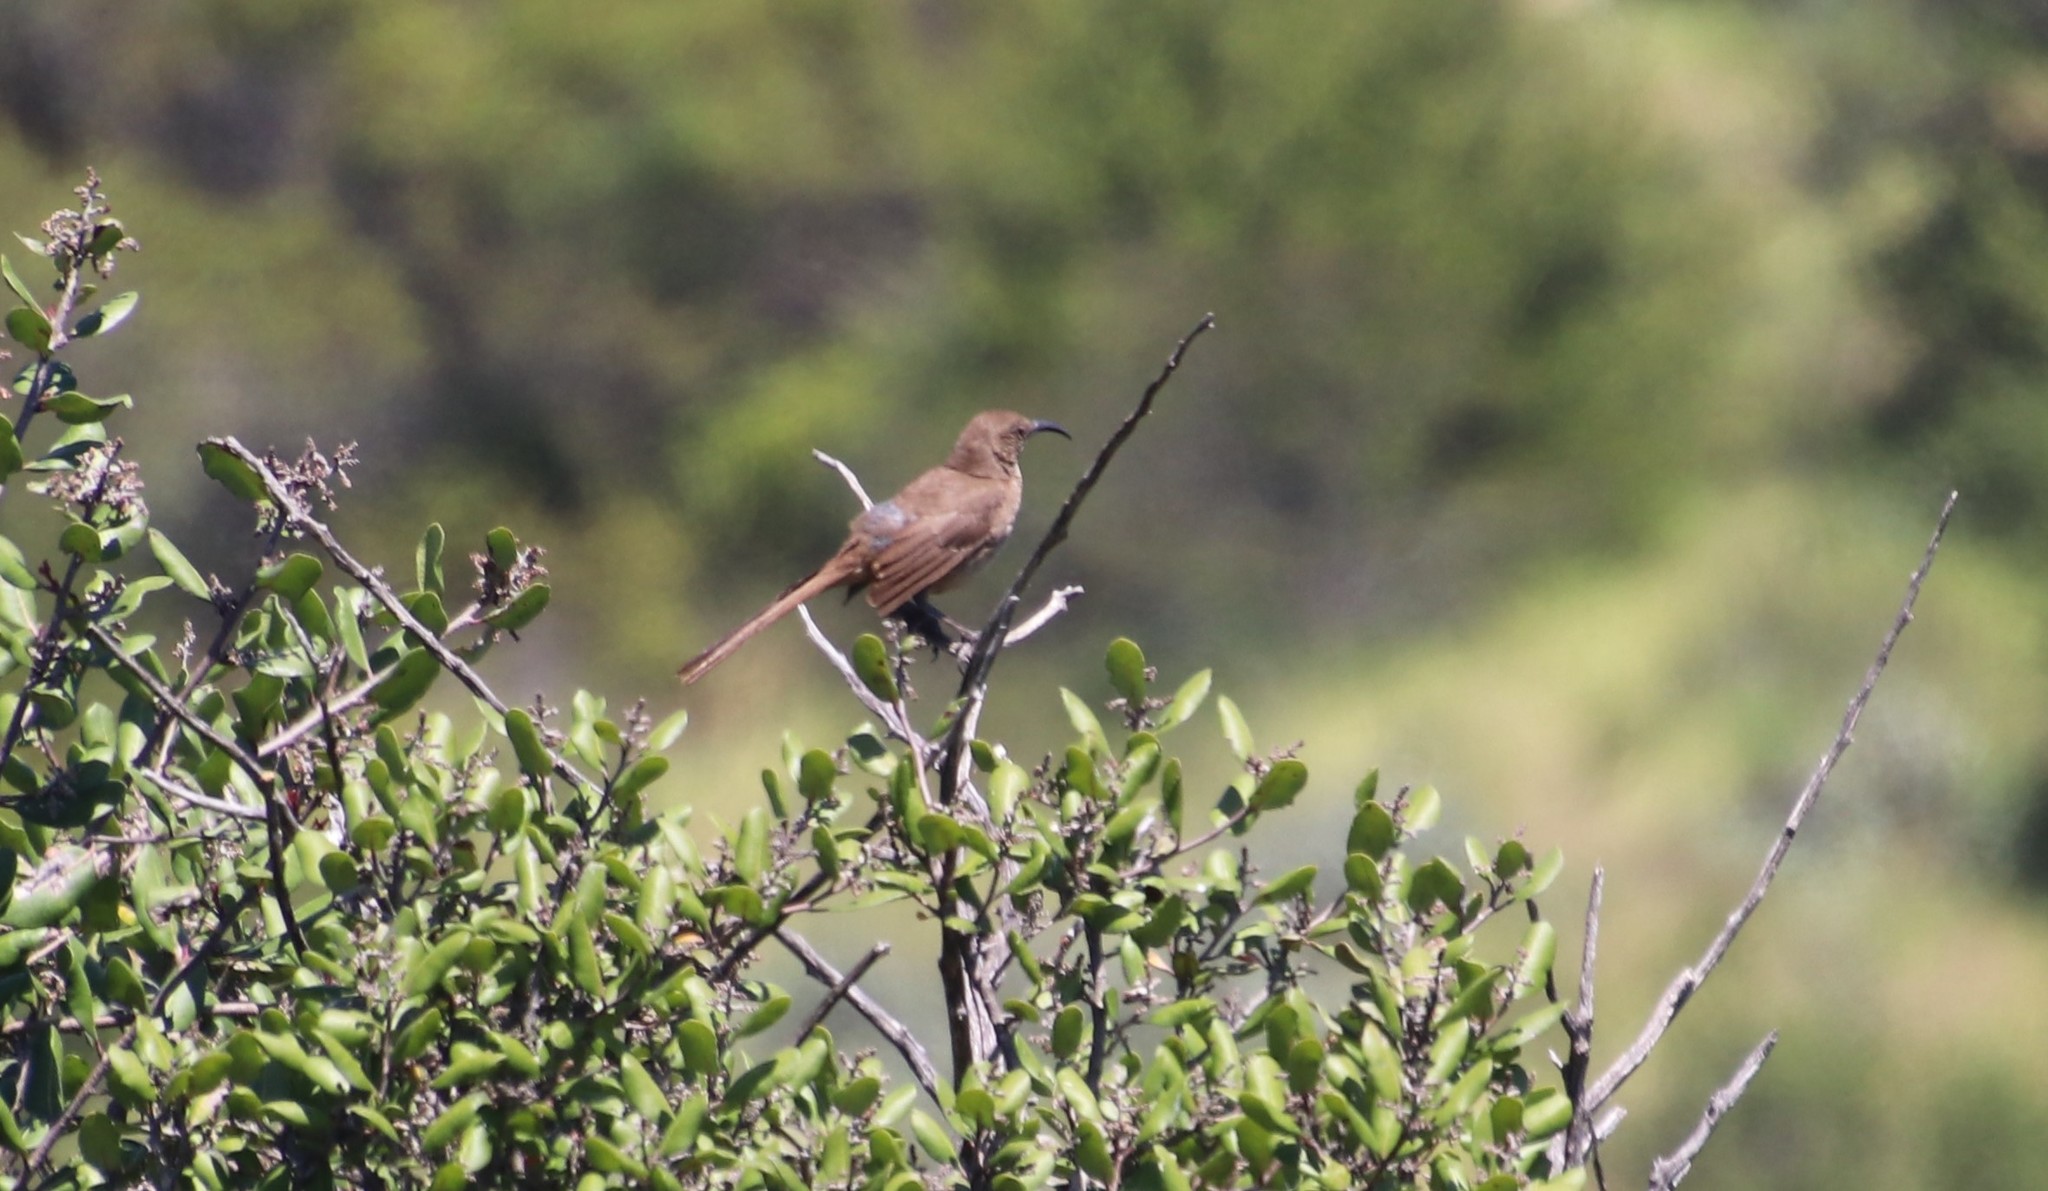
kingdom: Animalia
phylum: Chordata
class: Aves
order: Passeriformes
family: Mimidae
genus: Toxostoma
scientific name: Toxostoma redivivum
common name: California thrasher
